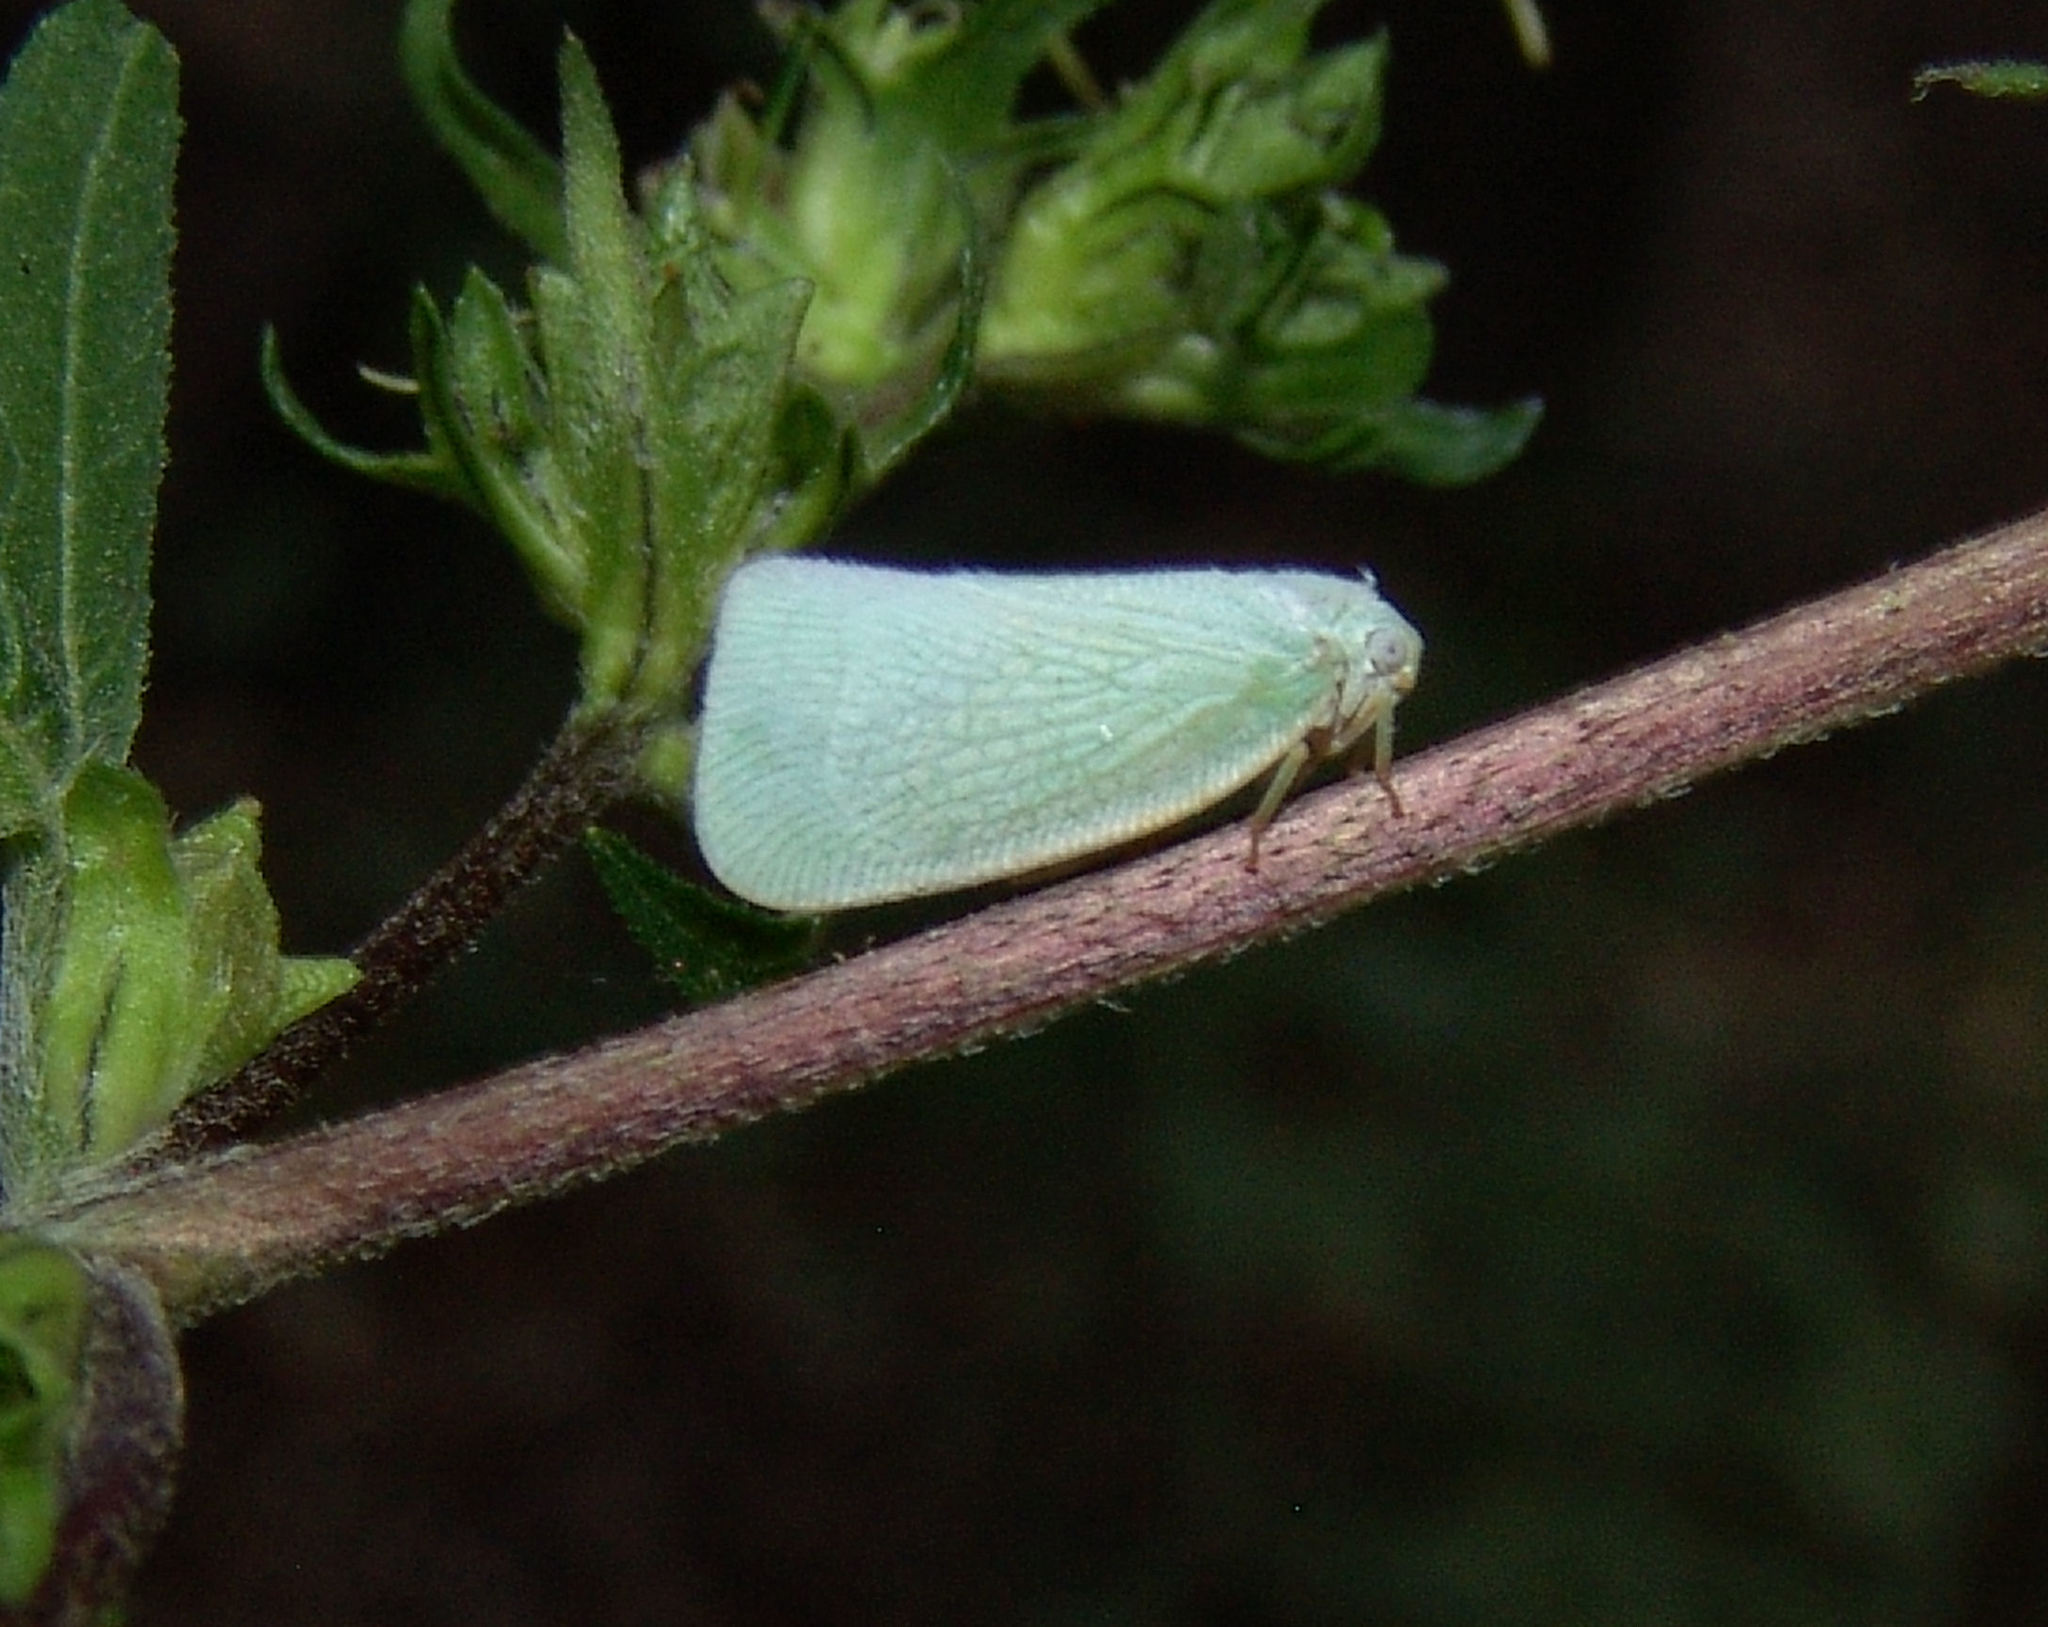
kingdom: Animalia
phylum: Arthropoda
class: Insecta
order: Hemiptera
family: Flatidae
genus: Flatormenis
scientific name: Flatormenis proxima
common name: Northern flatid planthopper
